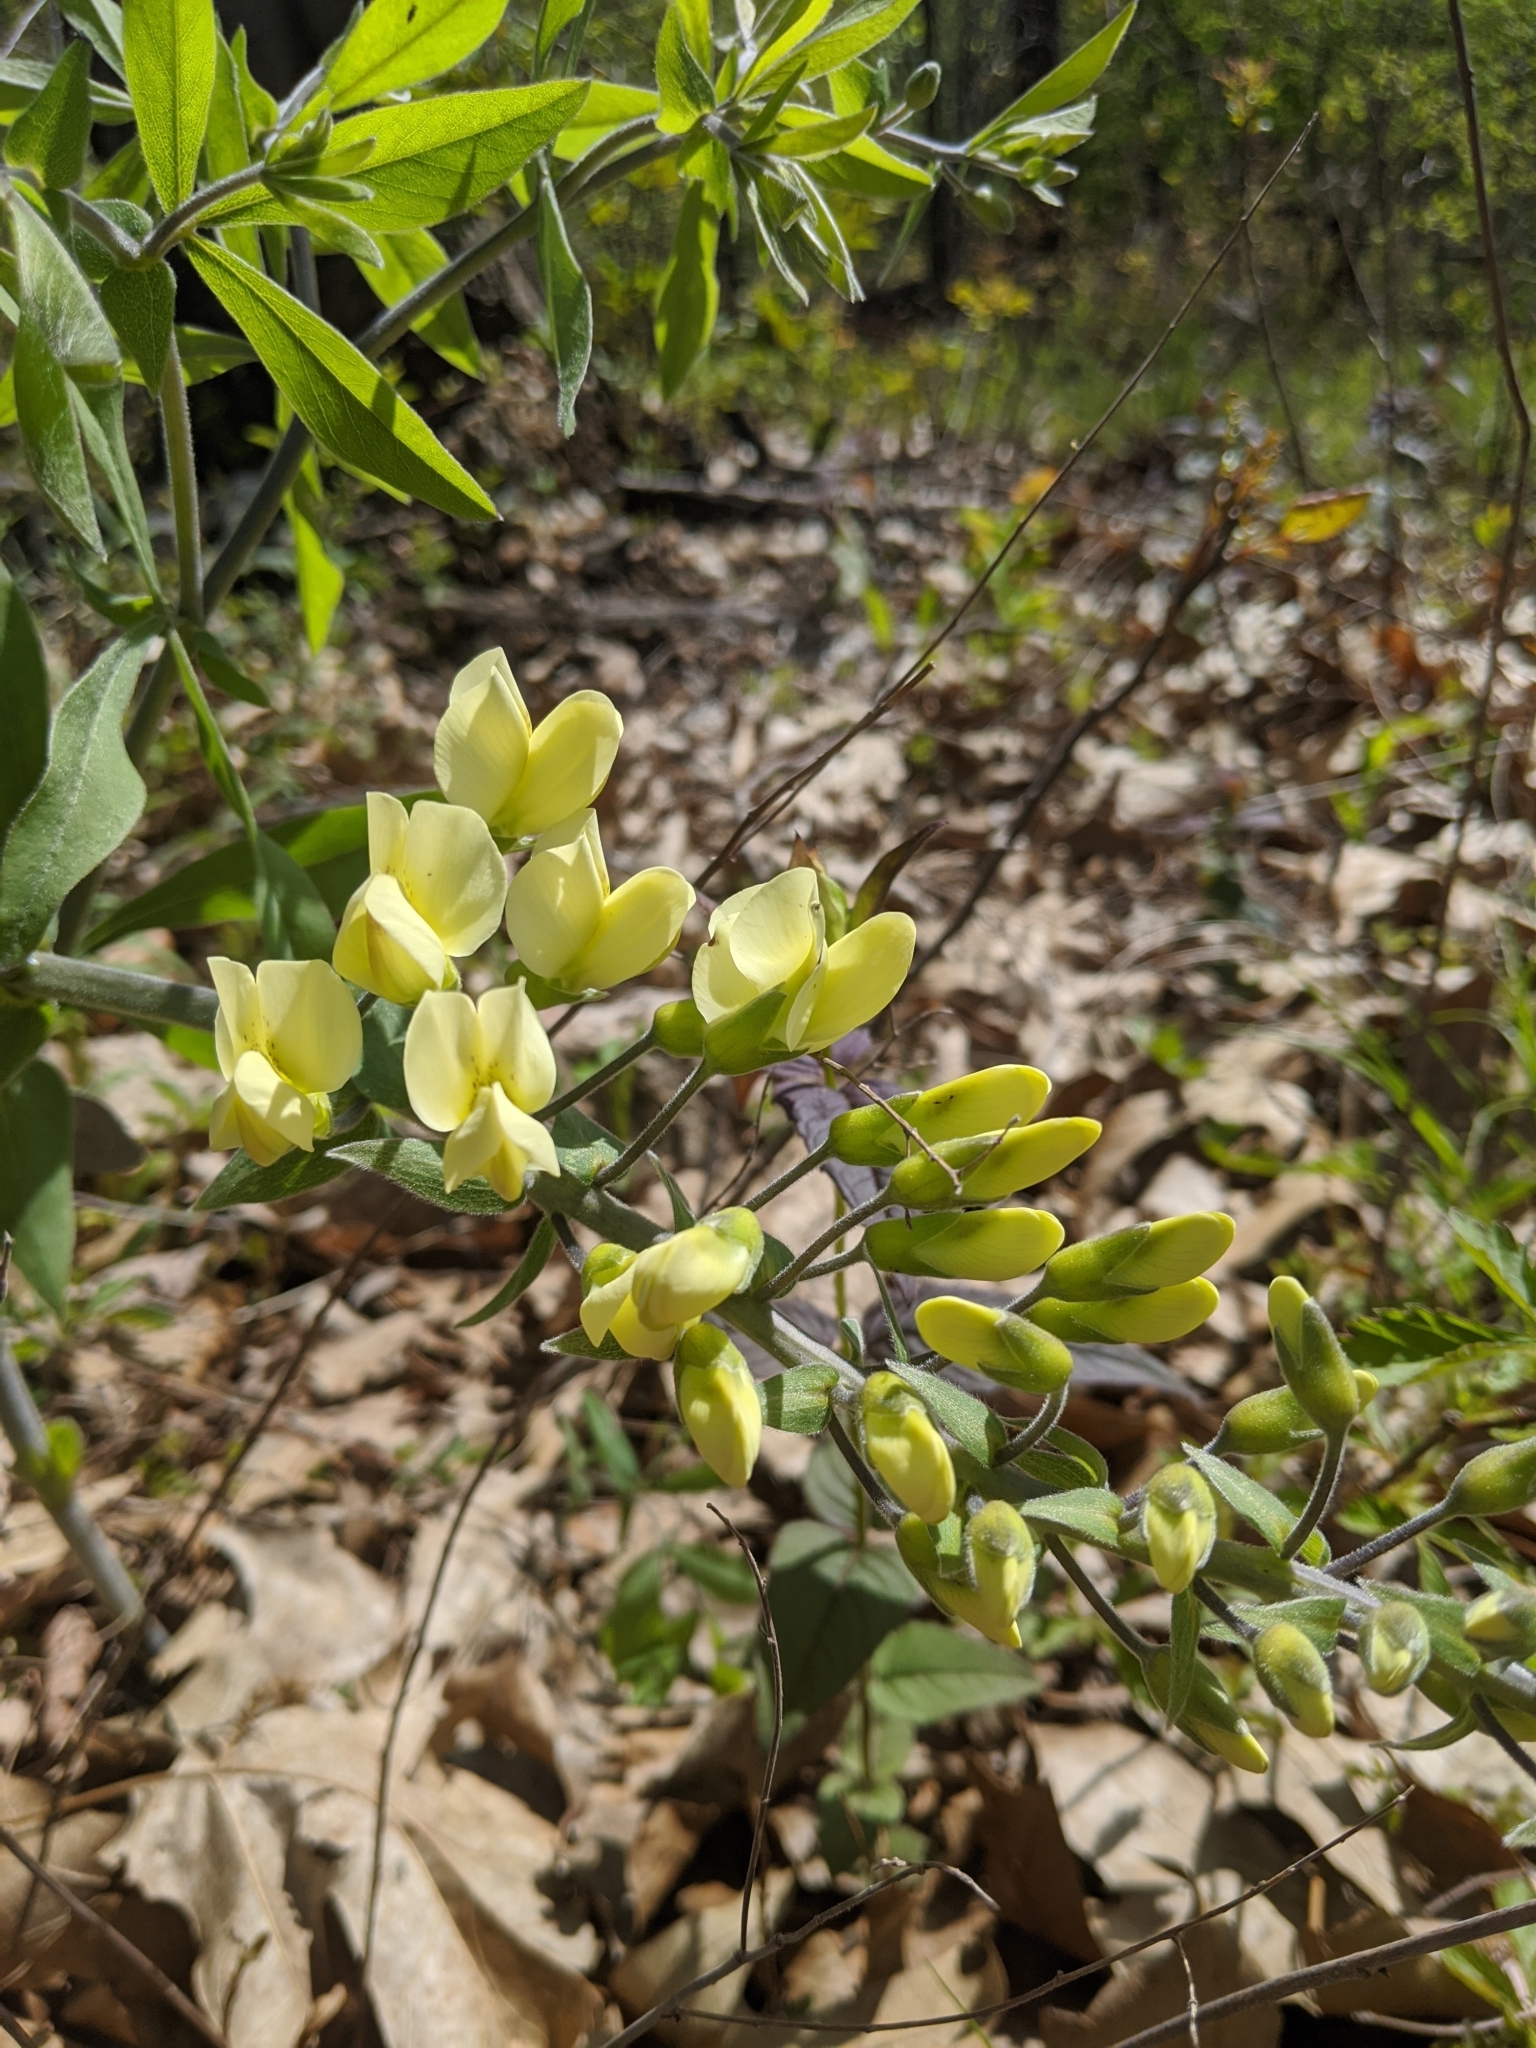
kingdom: Plantae
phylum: Tracheophyta
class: Magnoliopsida
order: Fabales
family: Fabaceae
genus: Baptisia
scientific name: Baptisia bracteata
